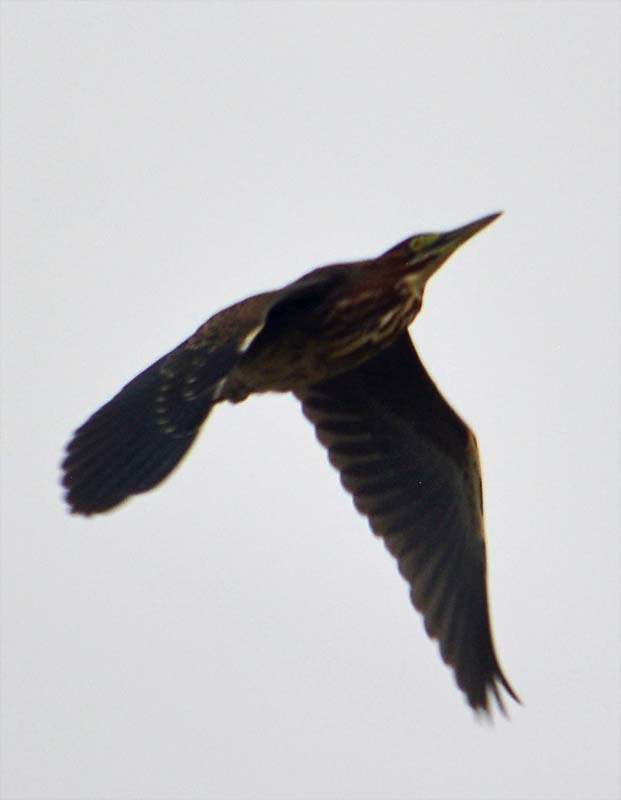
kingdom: Animalia
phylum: Chordata
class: Aves
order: Pelecaniformes
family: Ardeidae
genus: Butorides
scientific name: Butorides virescens
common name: Green heron
